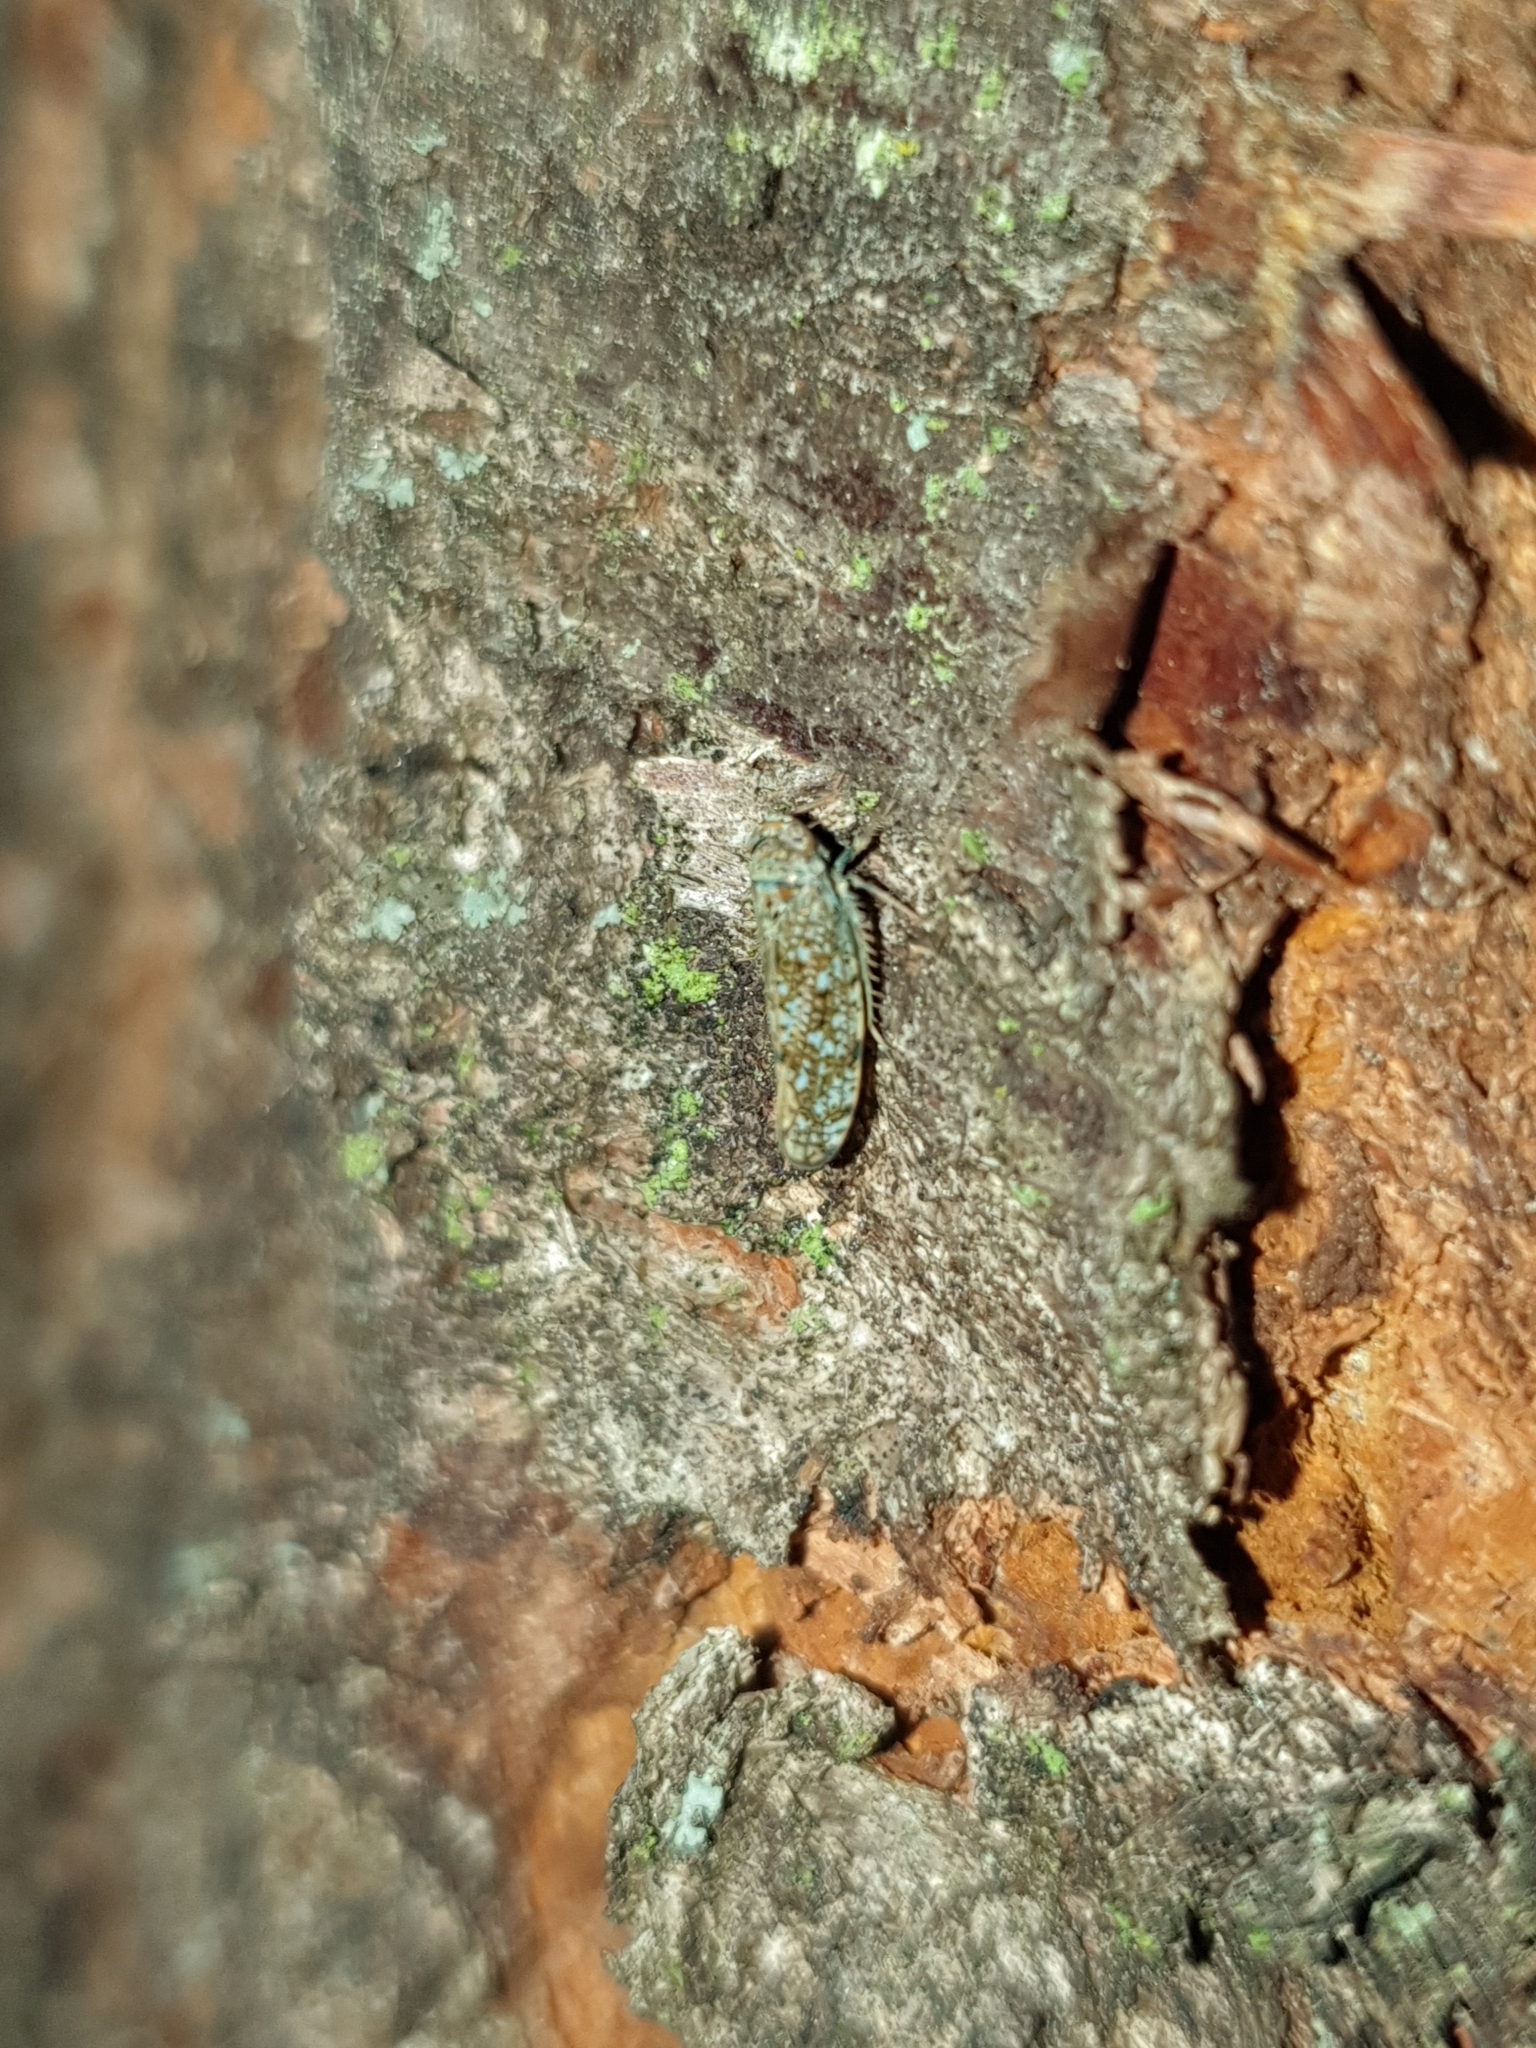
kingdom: Animalia
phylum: Arthropoda
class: Insecta
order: Hemiptera
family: Cicadellidae
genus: Orientus
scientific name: Orientus ishidae
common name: Japanese leafhopper
